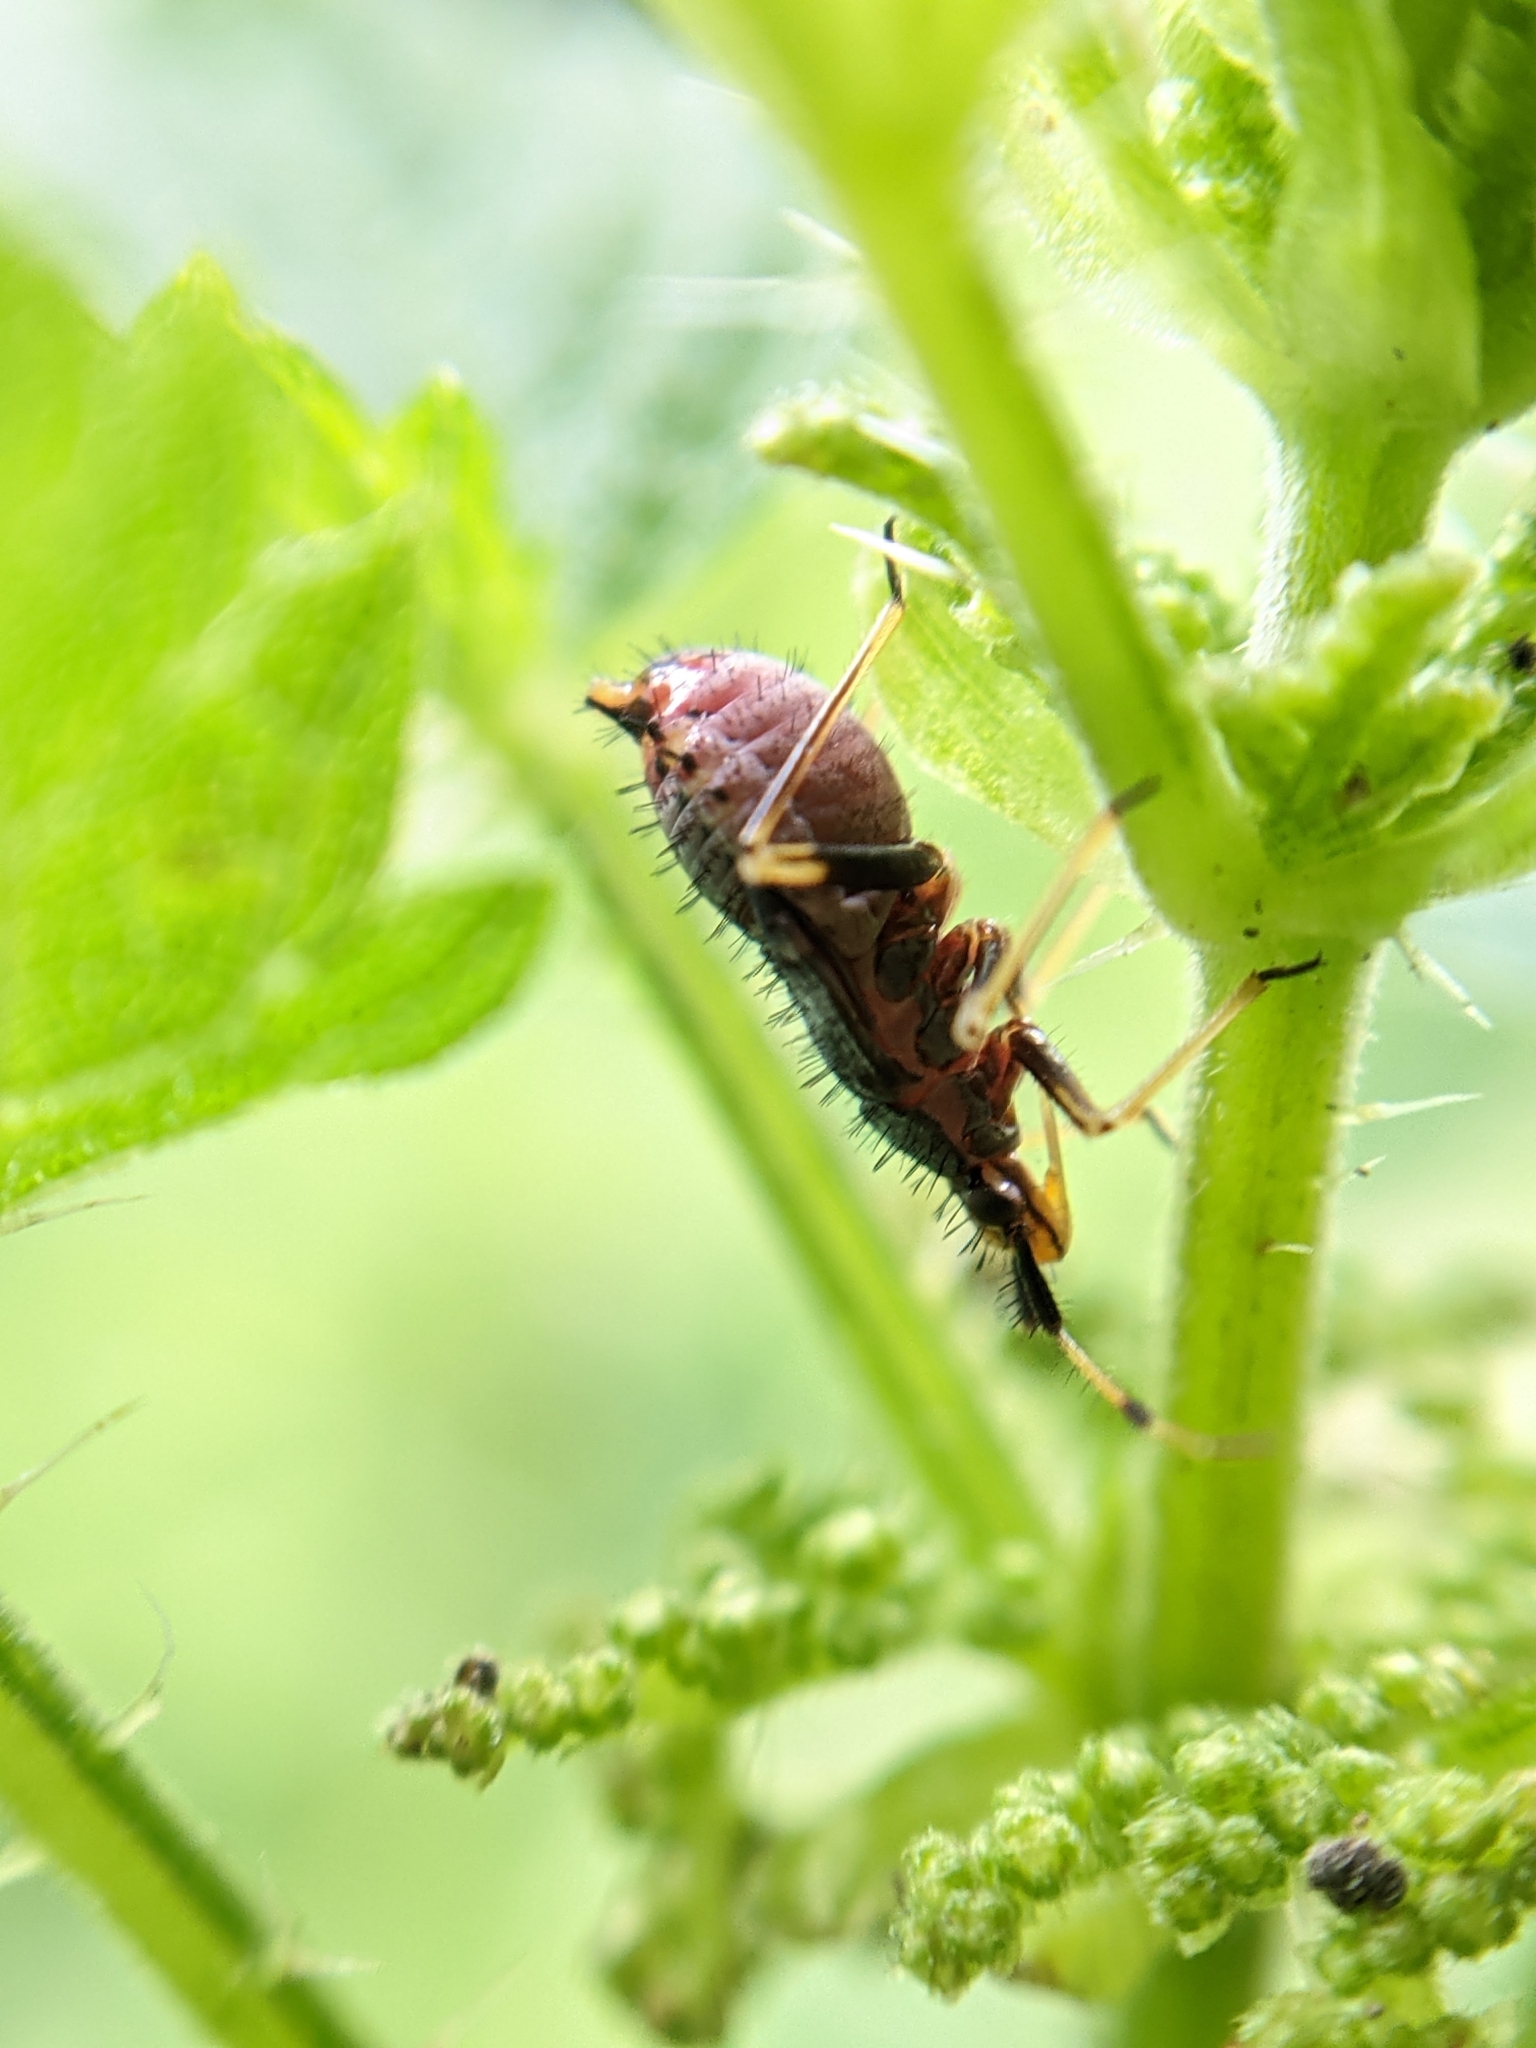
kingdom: Animalia
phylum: Arthropoda
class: Insecta
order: Hemiptera
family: Miridae
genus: Deraeocoris
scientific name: Deraeocoris ruber
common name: Plant bug
